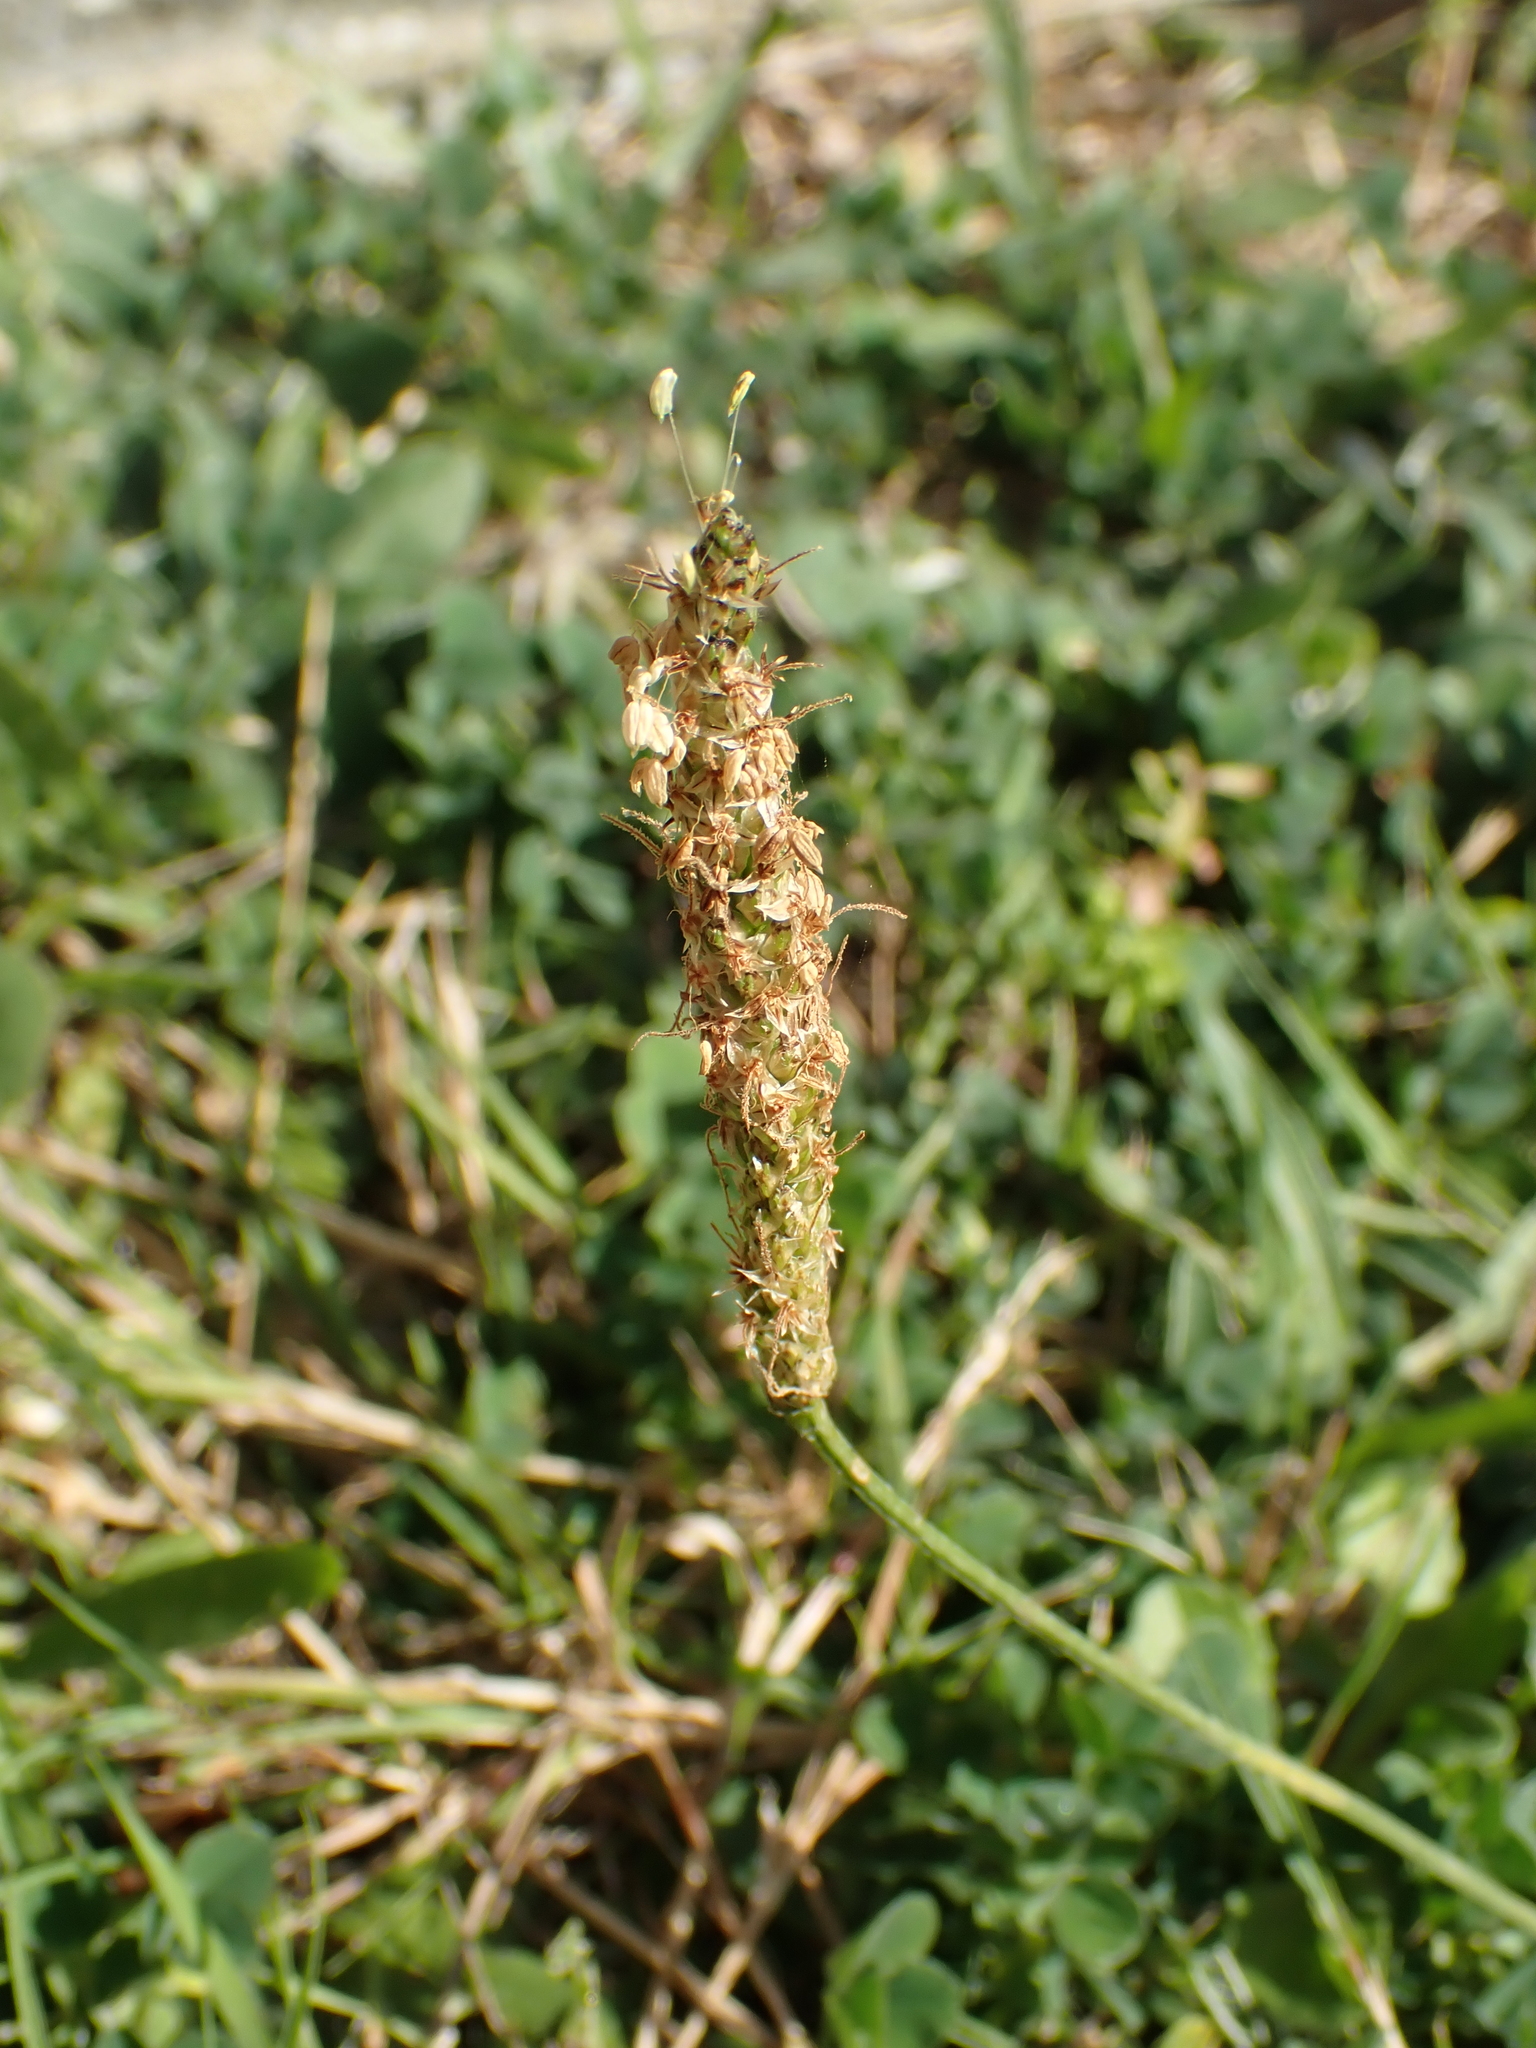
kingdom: Plantae
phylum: Tracheophyta
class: Magnoliopsida
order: Lamiales
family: Plantaginaceae
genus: Plantago
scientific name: Plantago lanceolata
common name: Ribwort plantain
